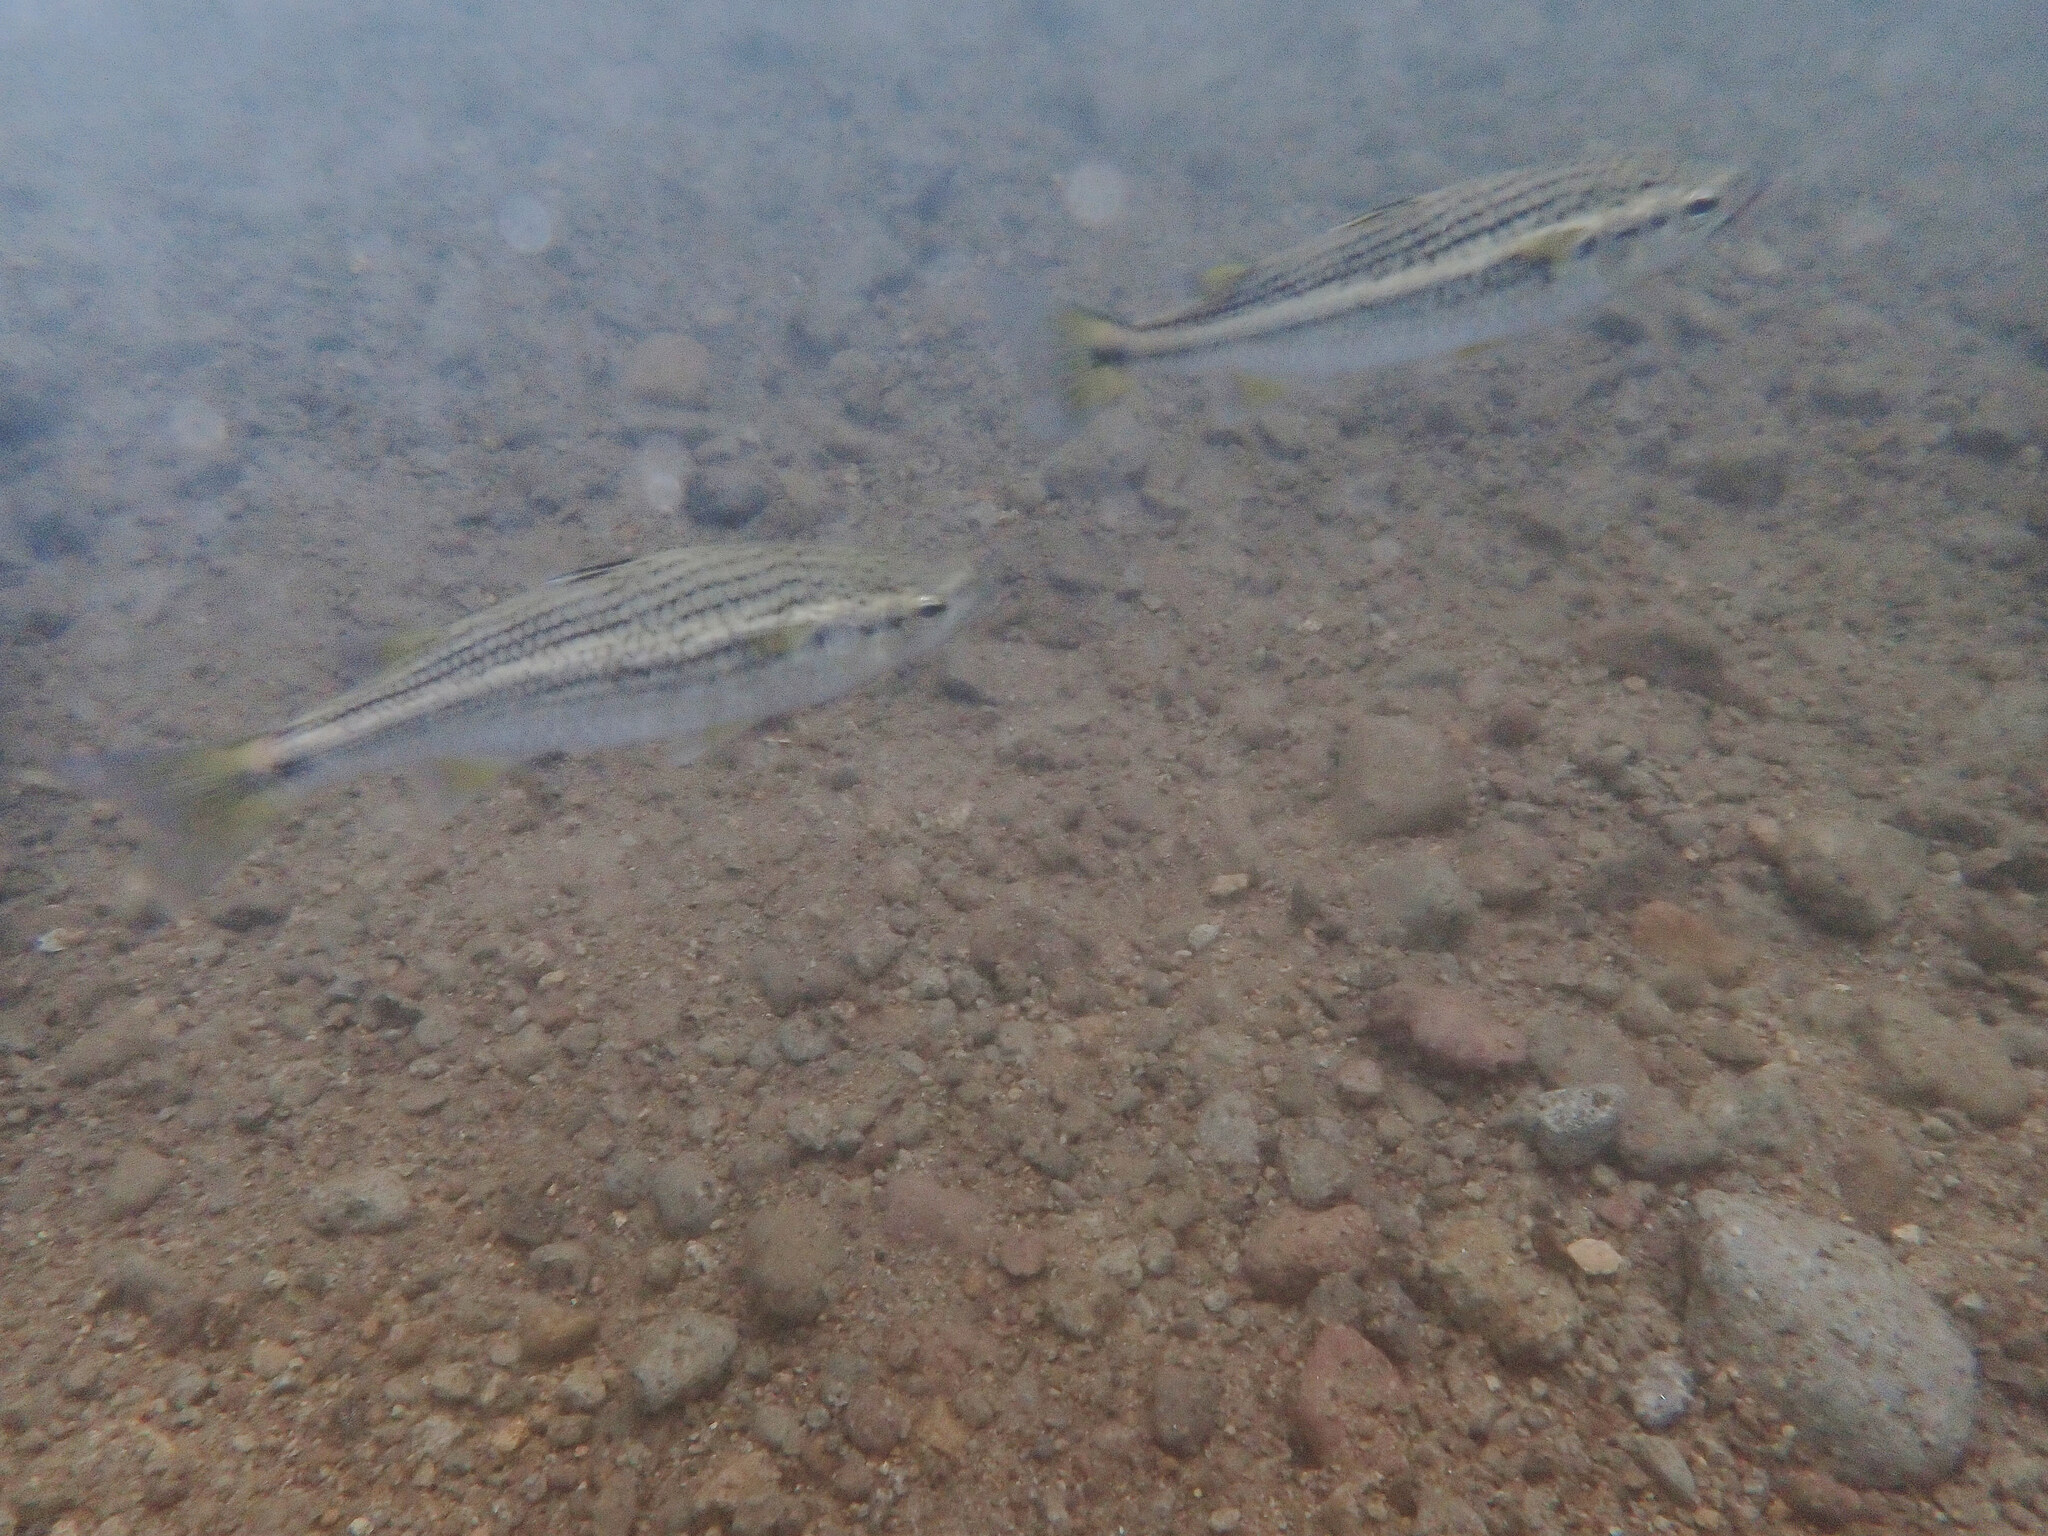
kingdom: Animalia
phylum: Chordata
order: Mugiliformes
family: Mugilidae
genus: Dajaus
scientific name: Dajaus monticola
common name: Mountain mullet
